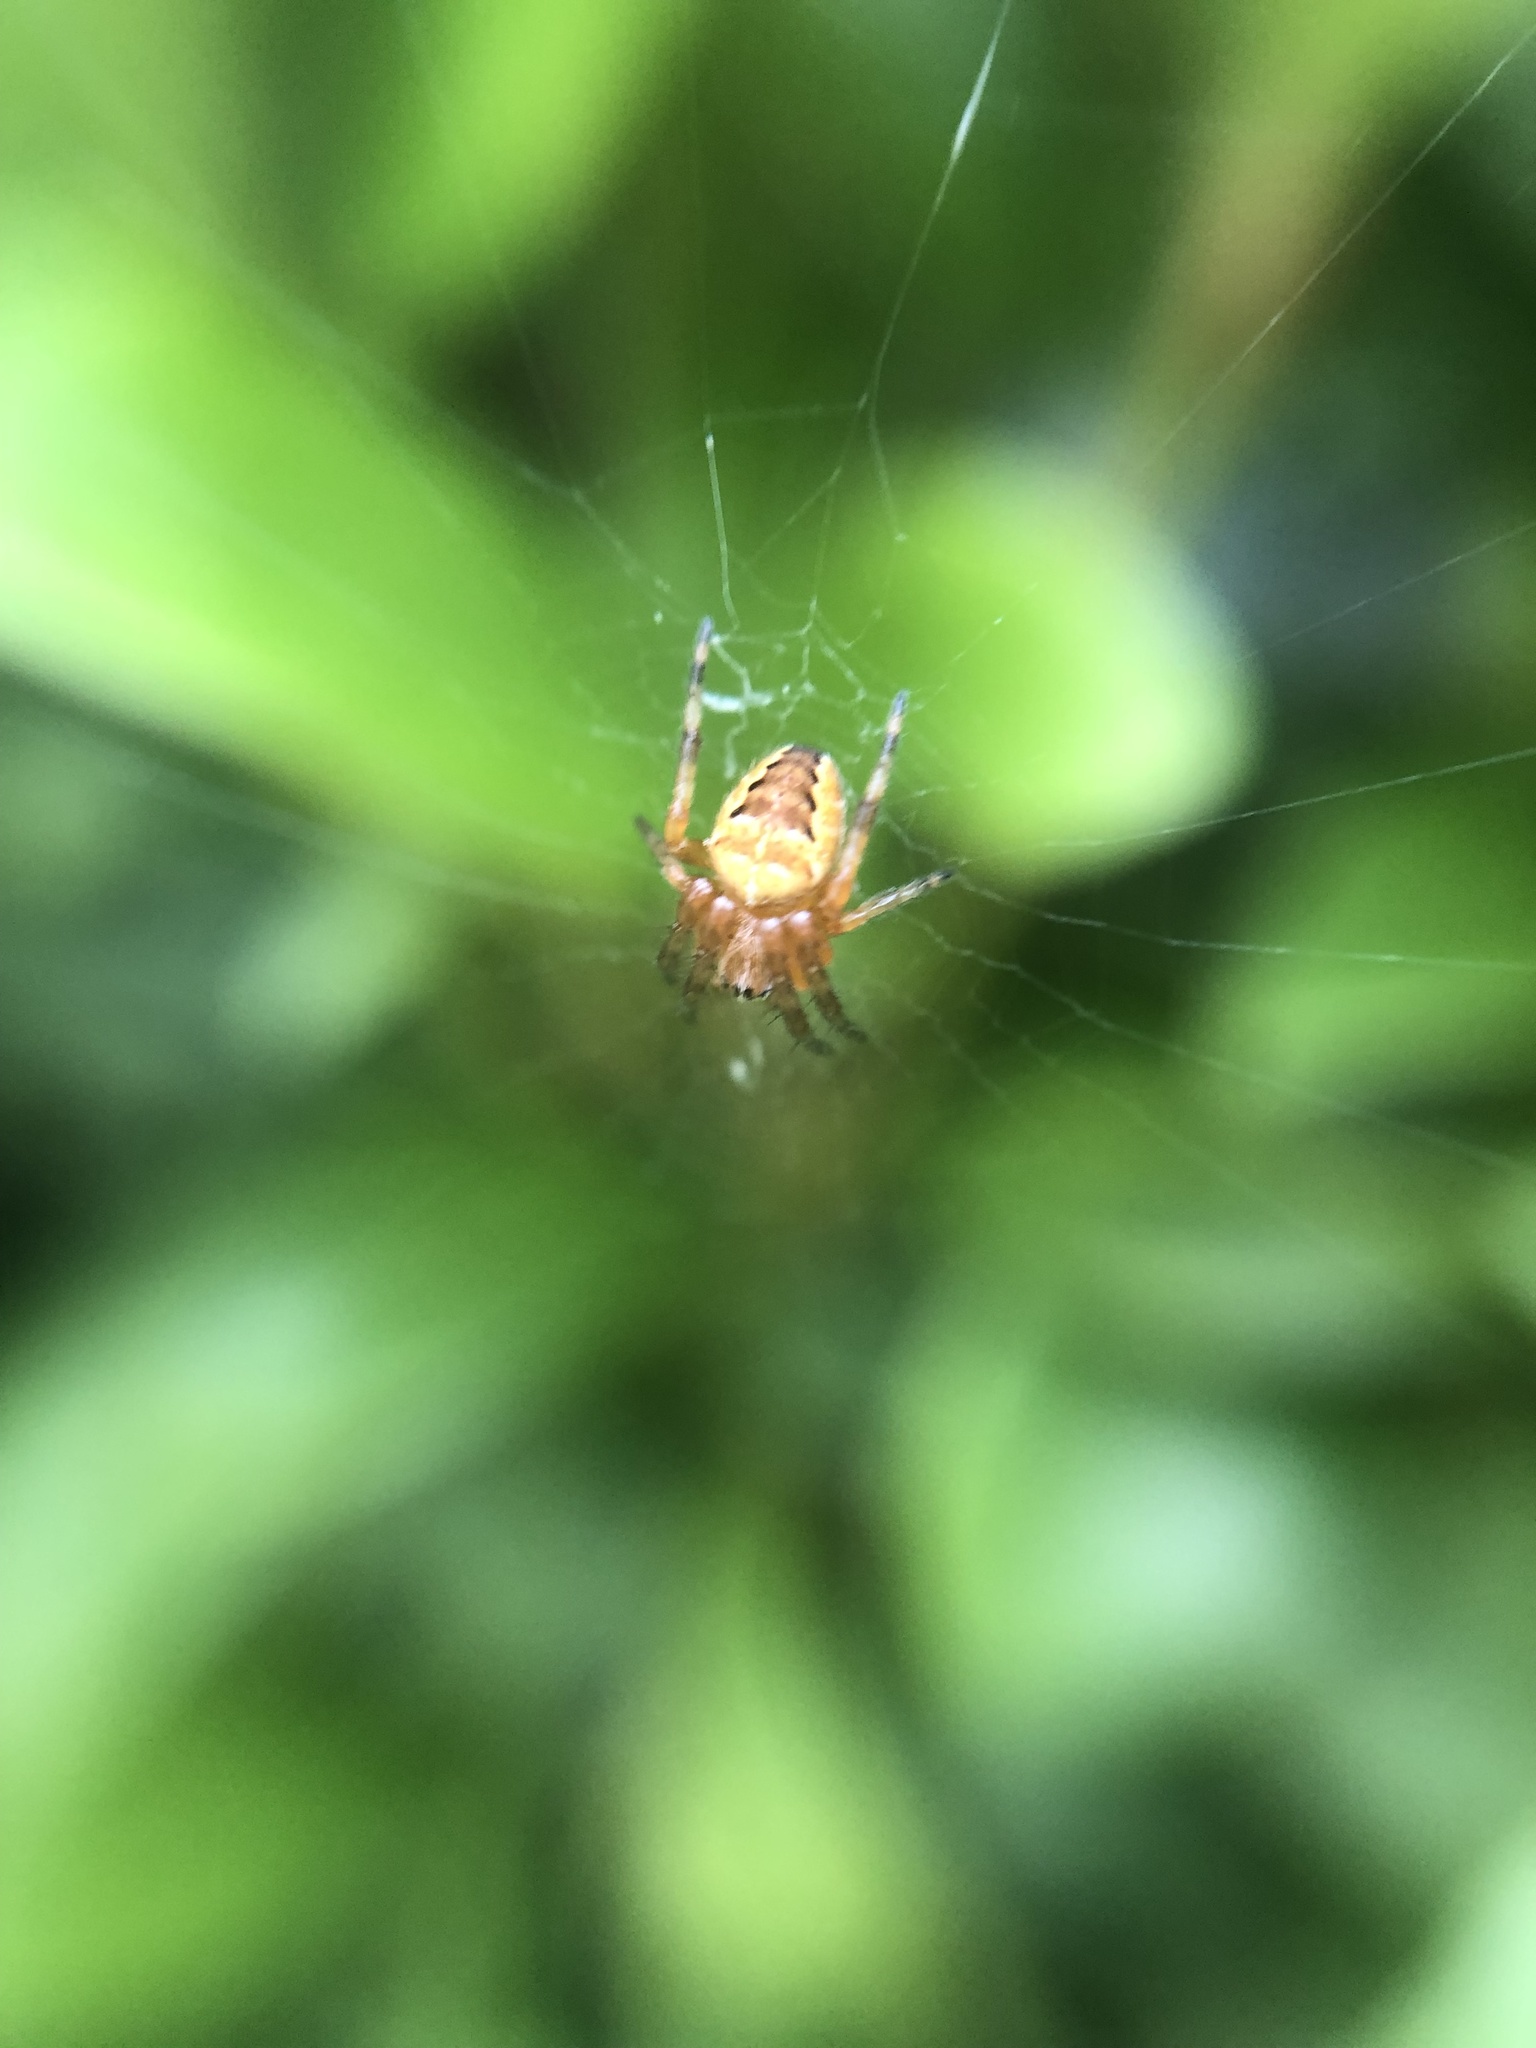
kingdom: Animalia
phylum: Arthropoda
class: Arachnida
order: Araneae
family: Araneidae
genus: Araneus
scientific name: Araneus diadematus
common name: Cross orbweaver
